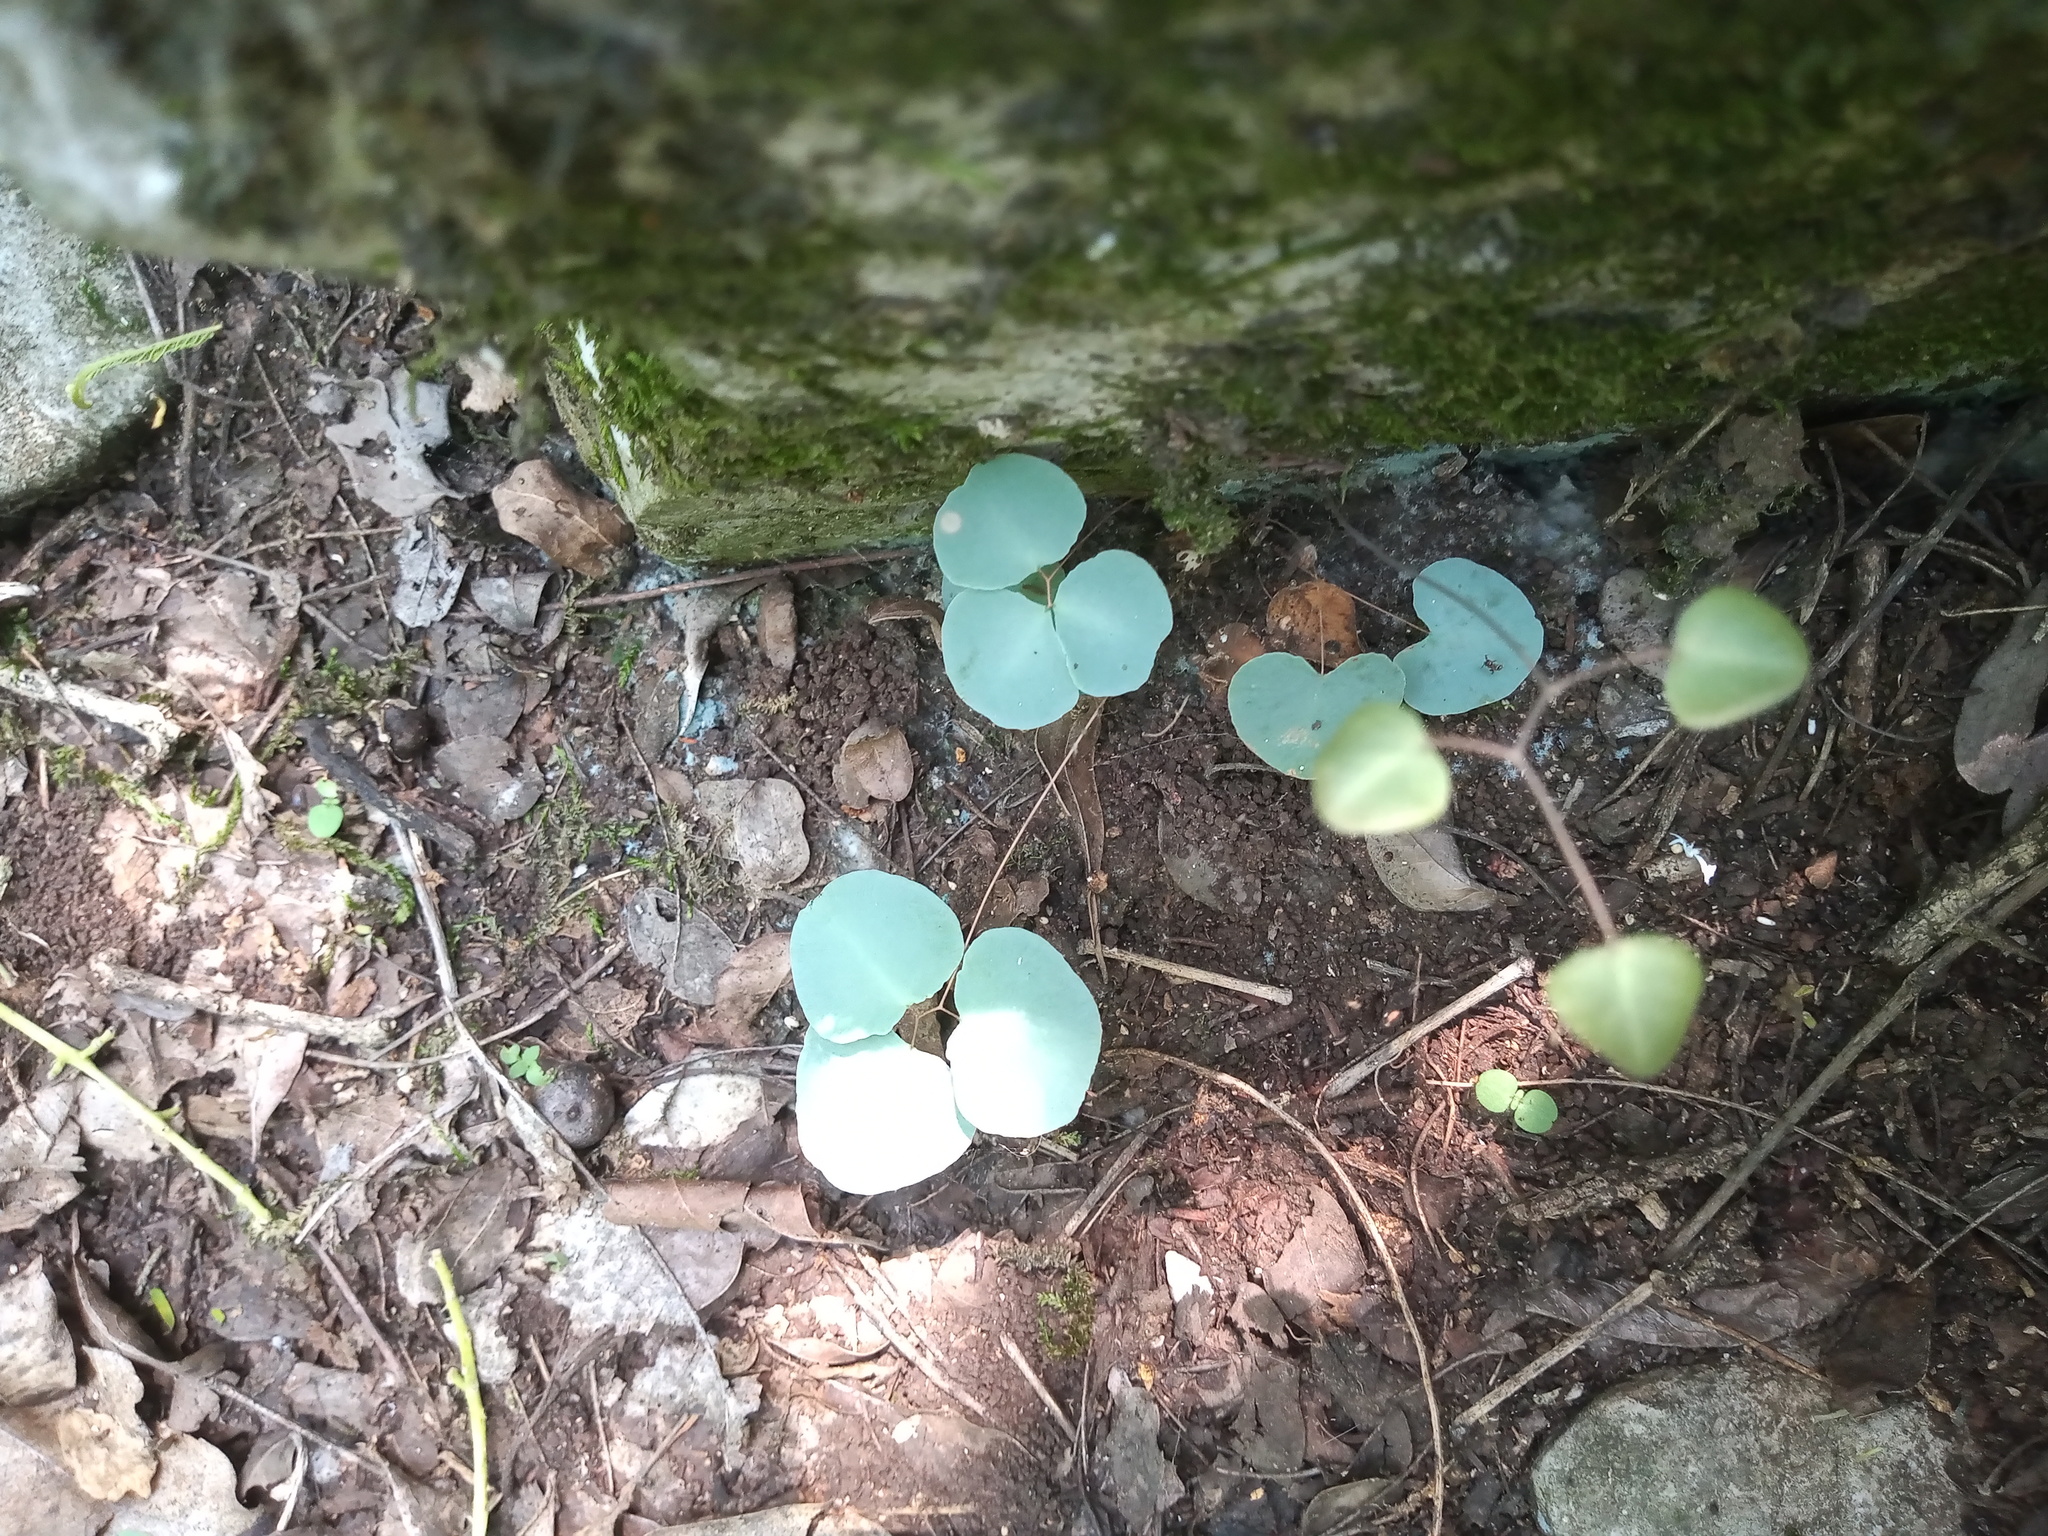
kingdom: Plantae
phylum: Tracheophyta
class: Polypodiopsida
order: Polypodiales
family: Pteridaceae
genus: Pellaea
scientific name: Pellaea ovata
